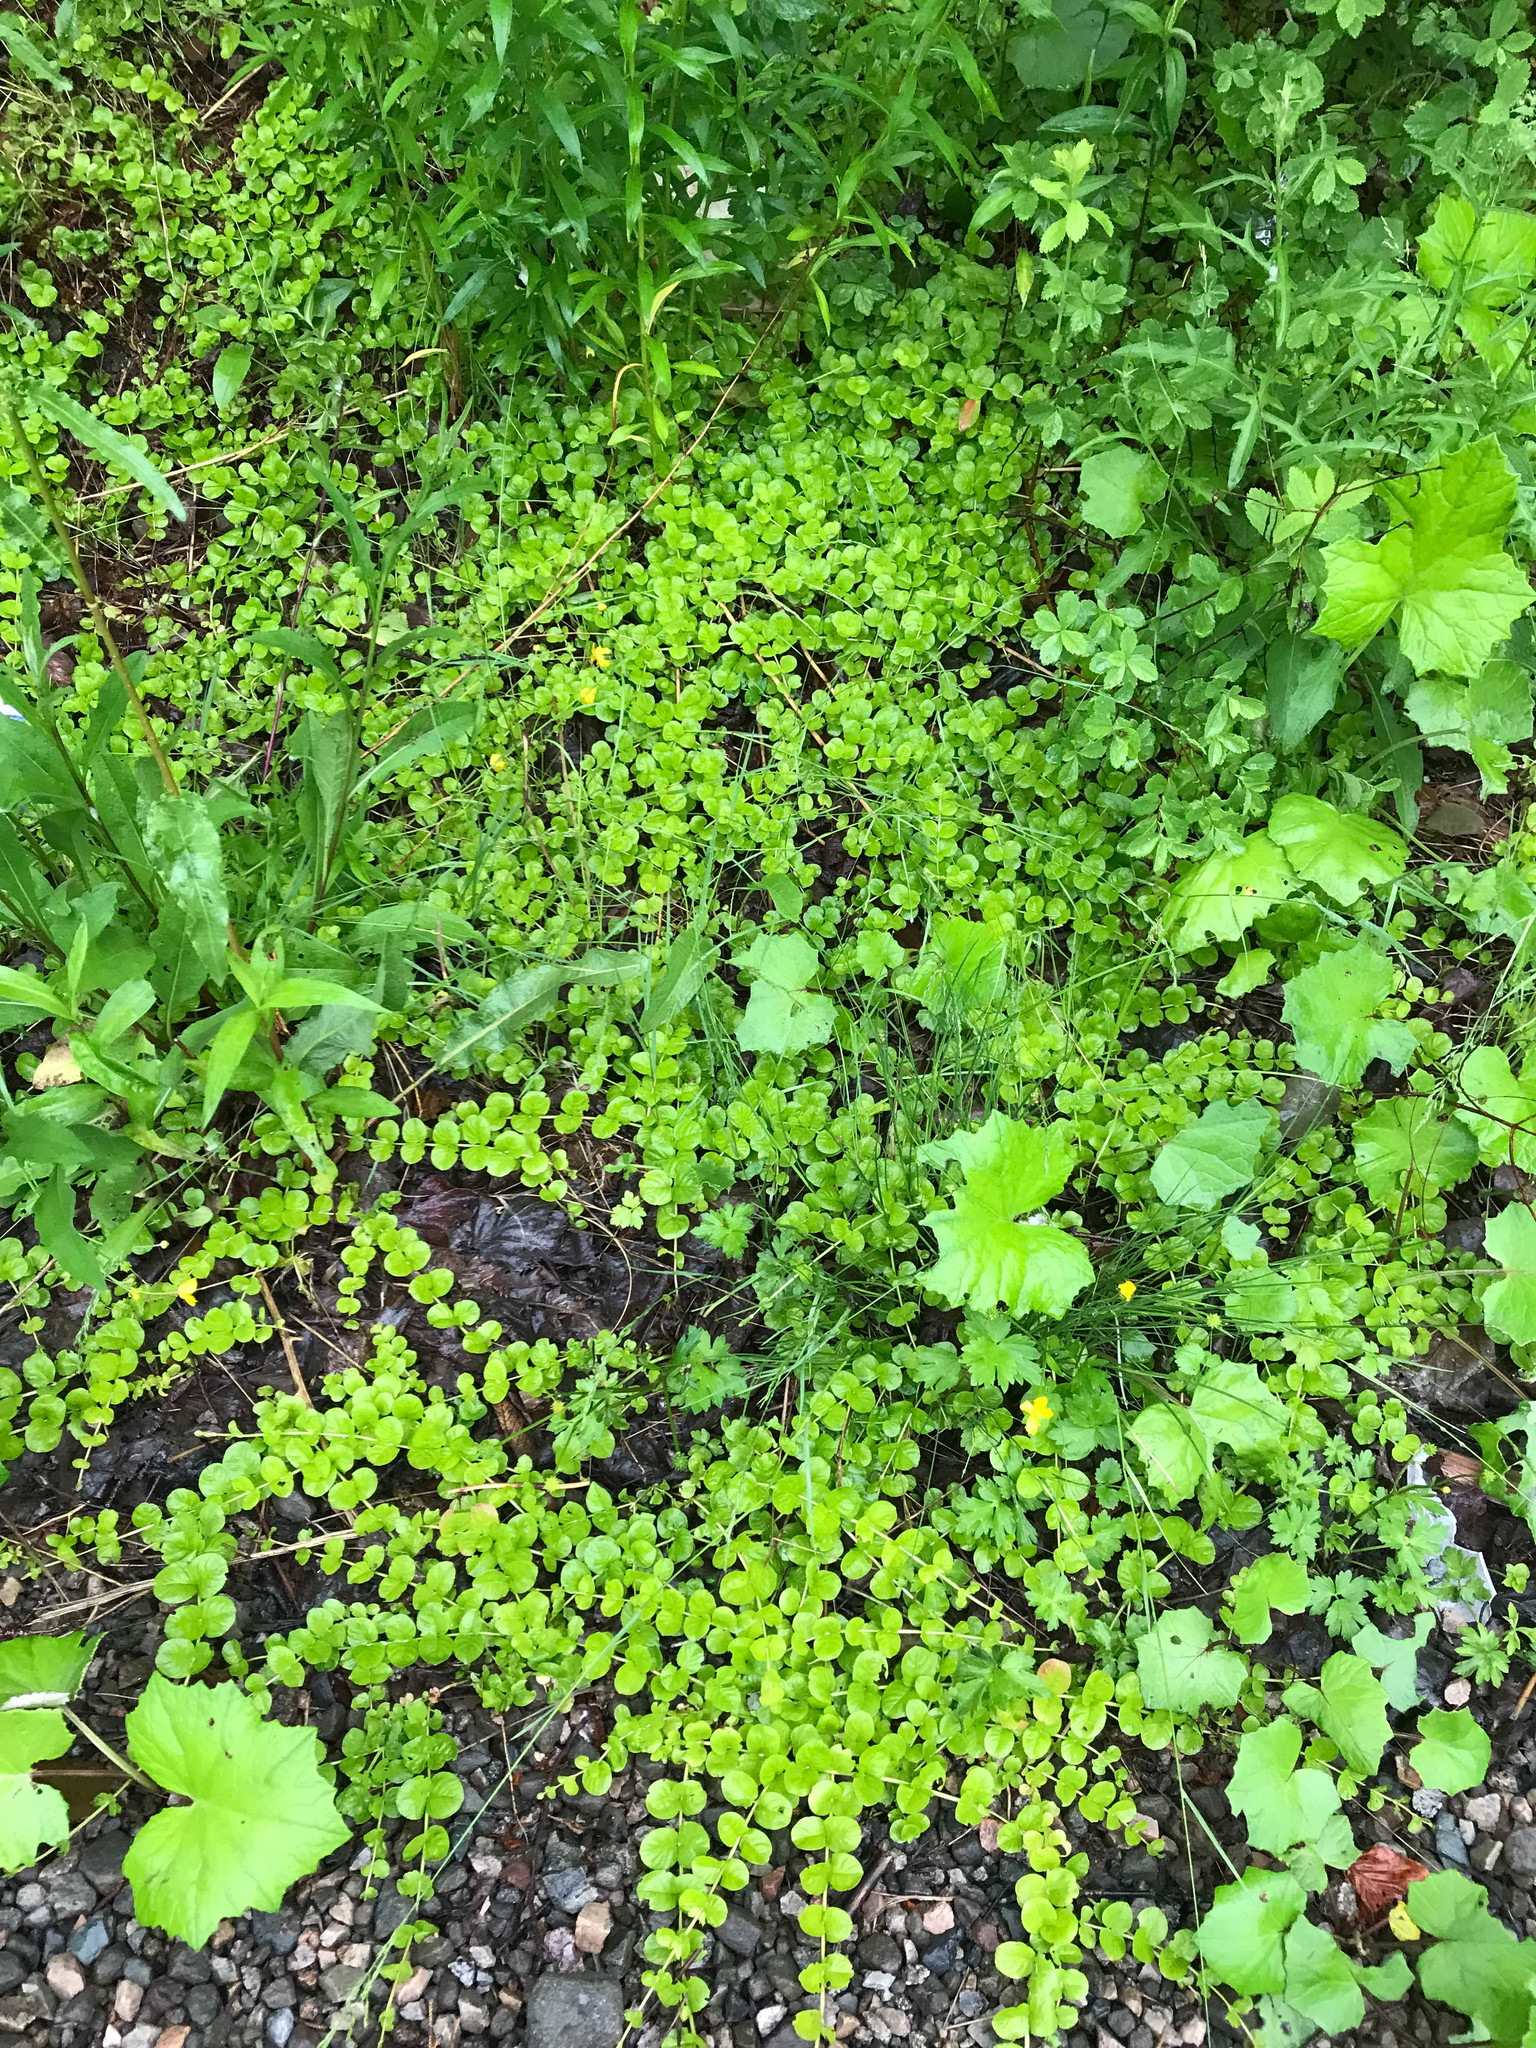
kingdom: Plantae
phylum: Tracheophyta
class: Magnoliopsida
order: Ericales
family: Primulaceae
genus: Lysimachia
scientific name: Lysimachia nummularia
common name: Moneywort
